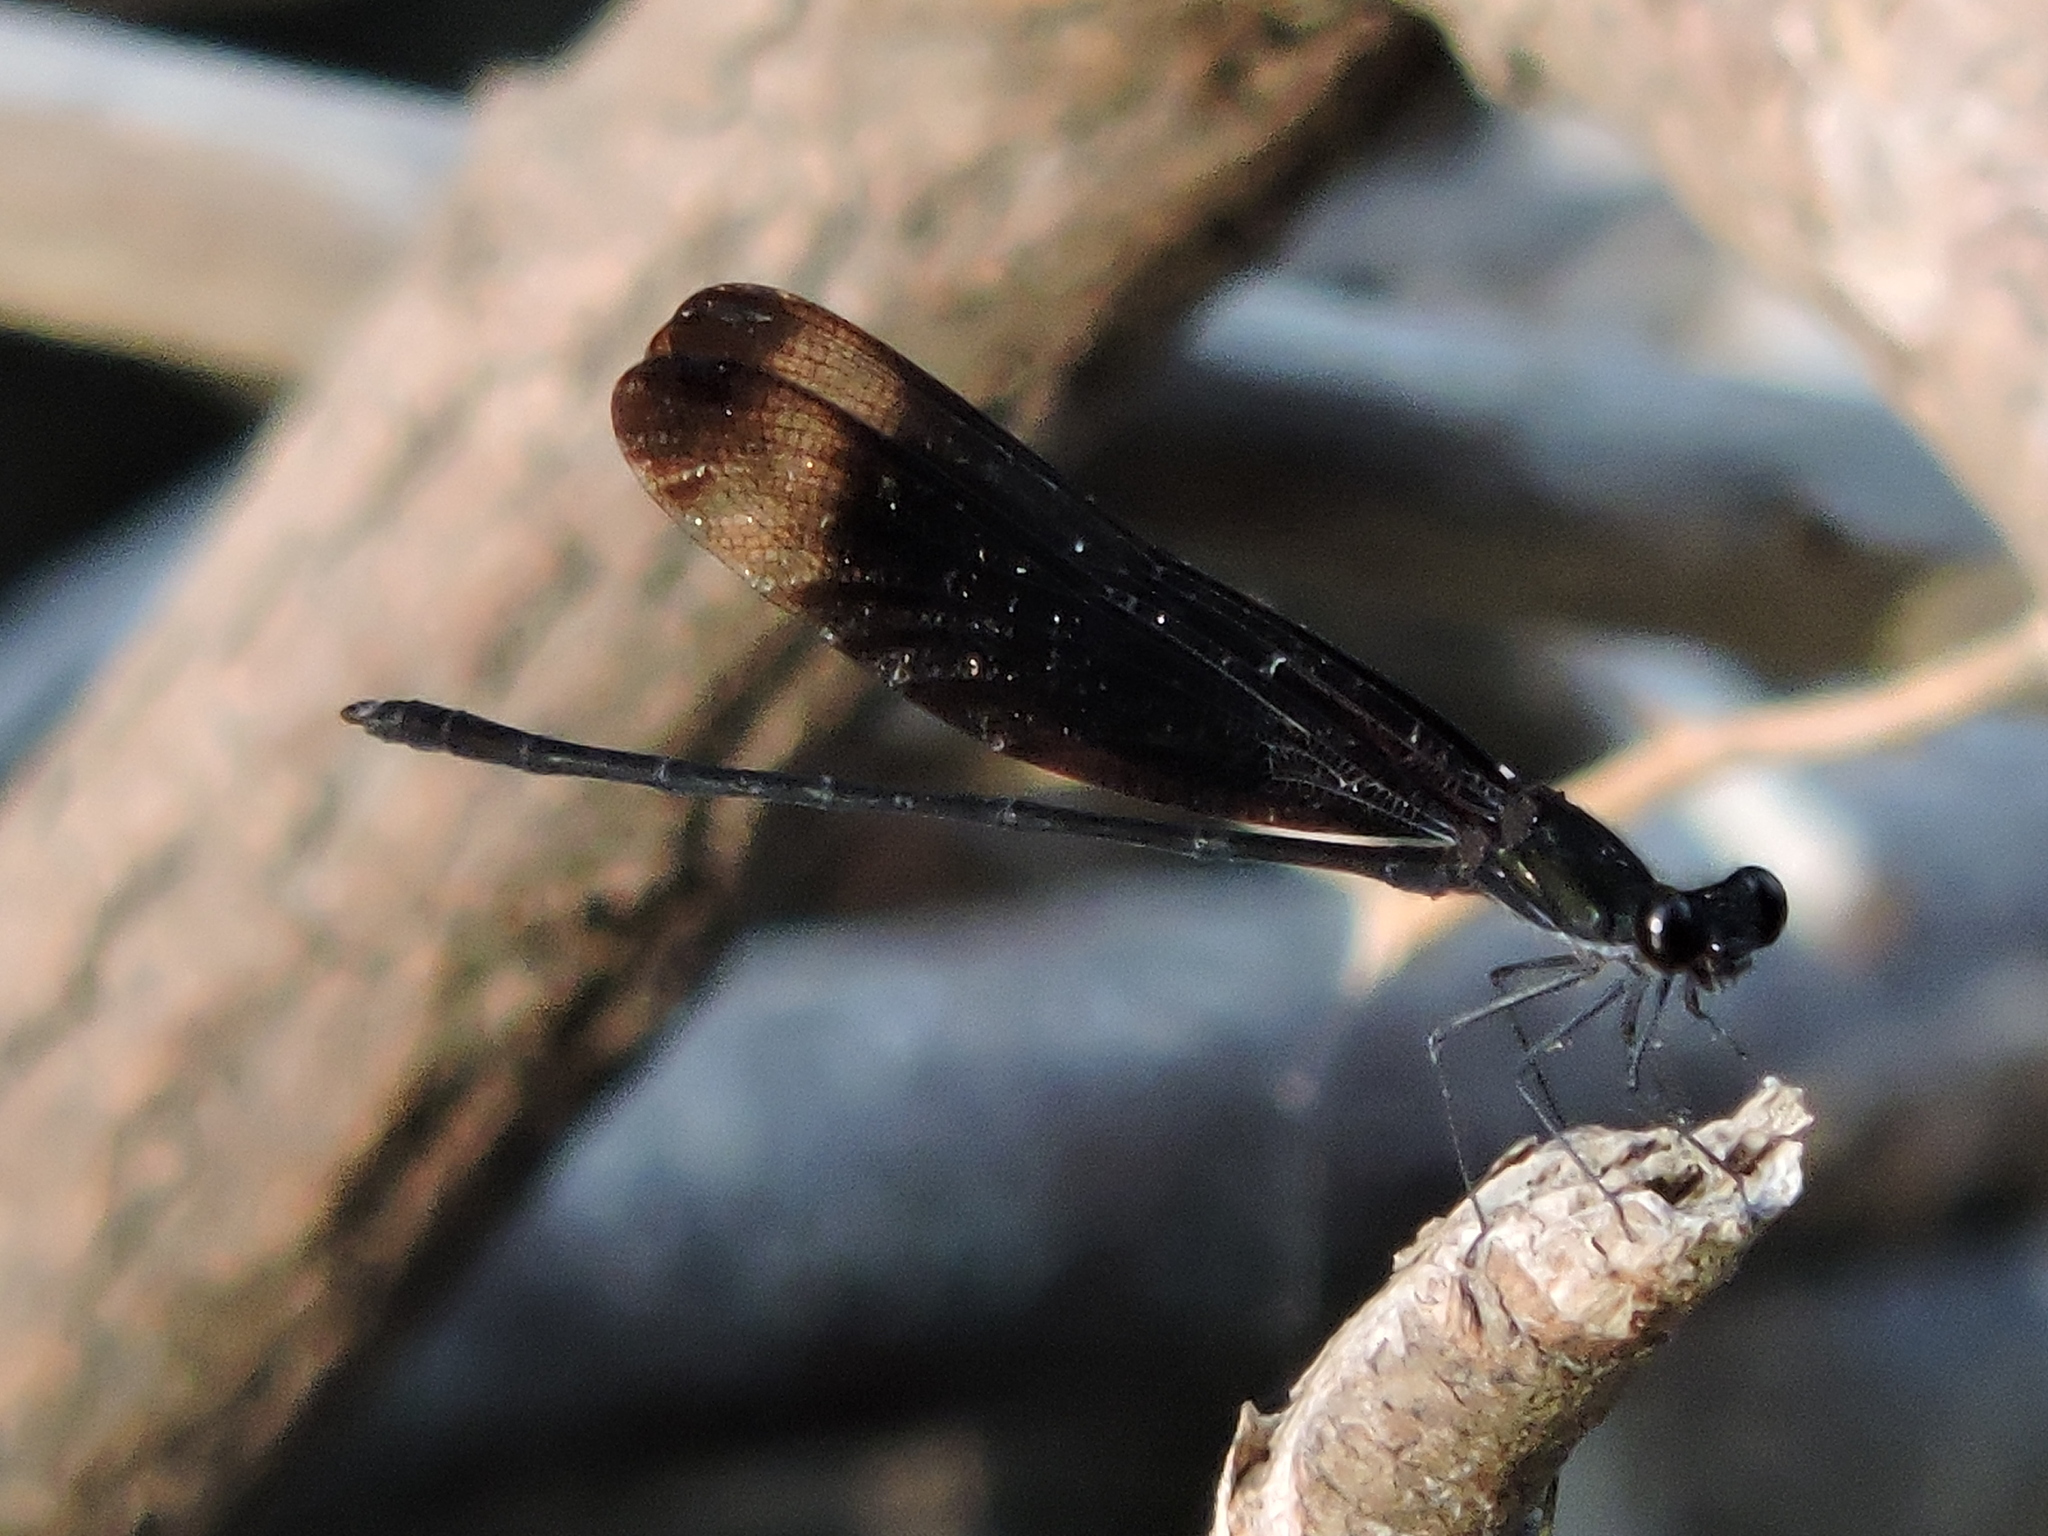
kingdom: Animalia
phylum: Arthropoda
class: Insecta
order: Odonata
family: Calopterygidae
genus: Hetaerina
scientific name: Hetaerina titia
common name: Smoky rubyspot
